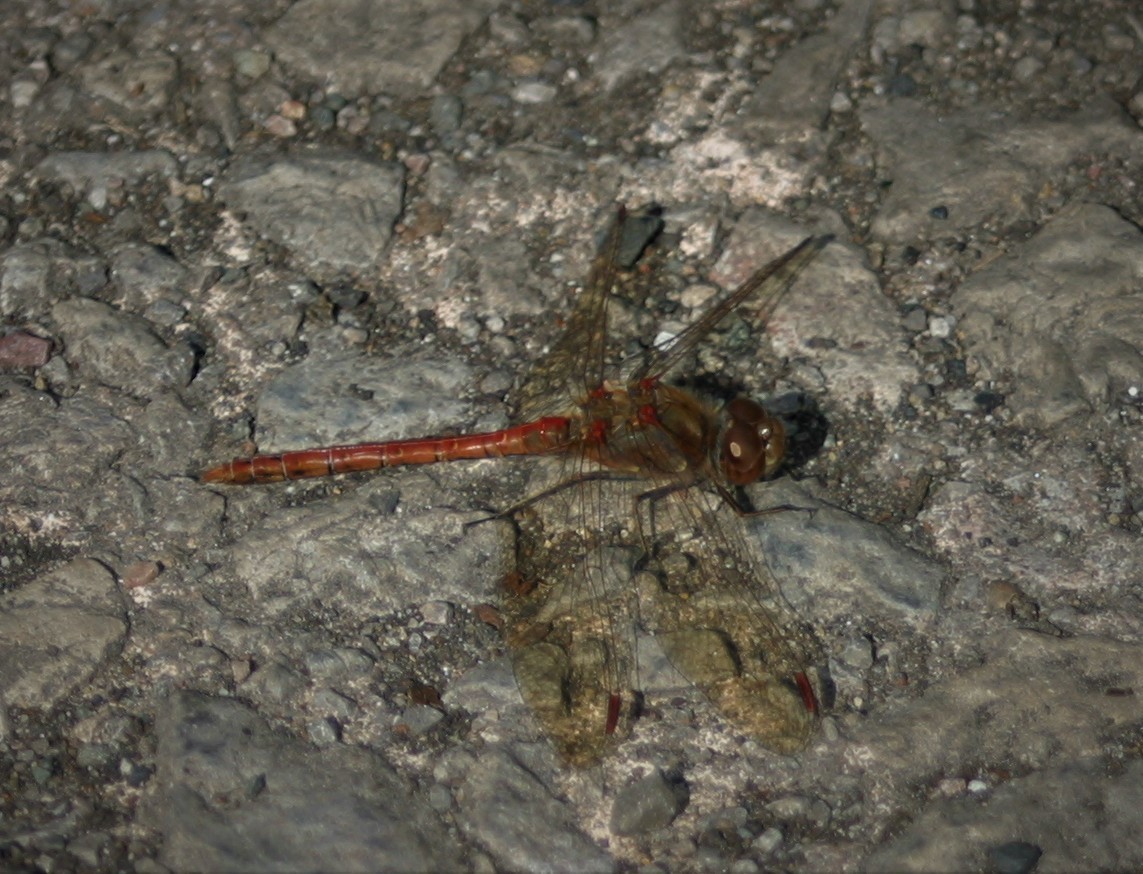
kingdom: Animalia
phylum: Arthropoda
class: Insecta
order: Odonata
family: Libellulidae
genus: Sympetrum
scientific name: Sympetrum striolatum
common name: Common darter
